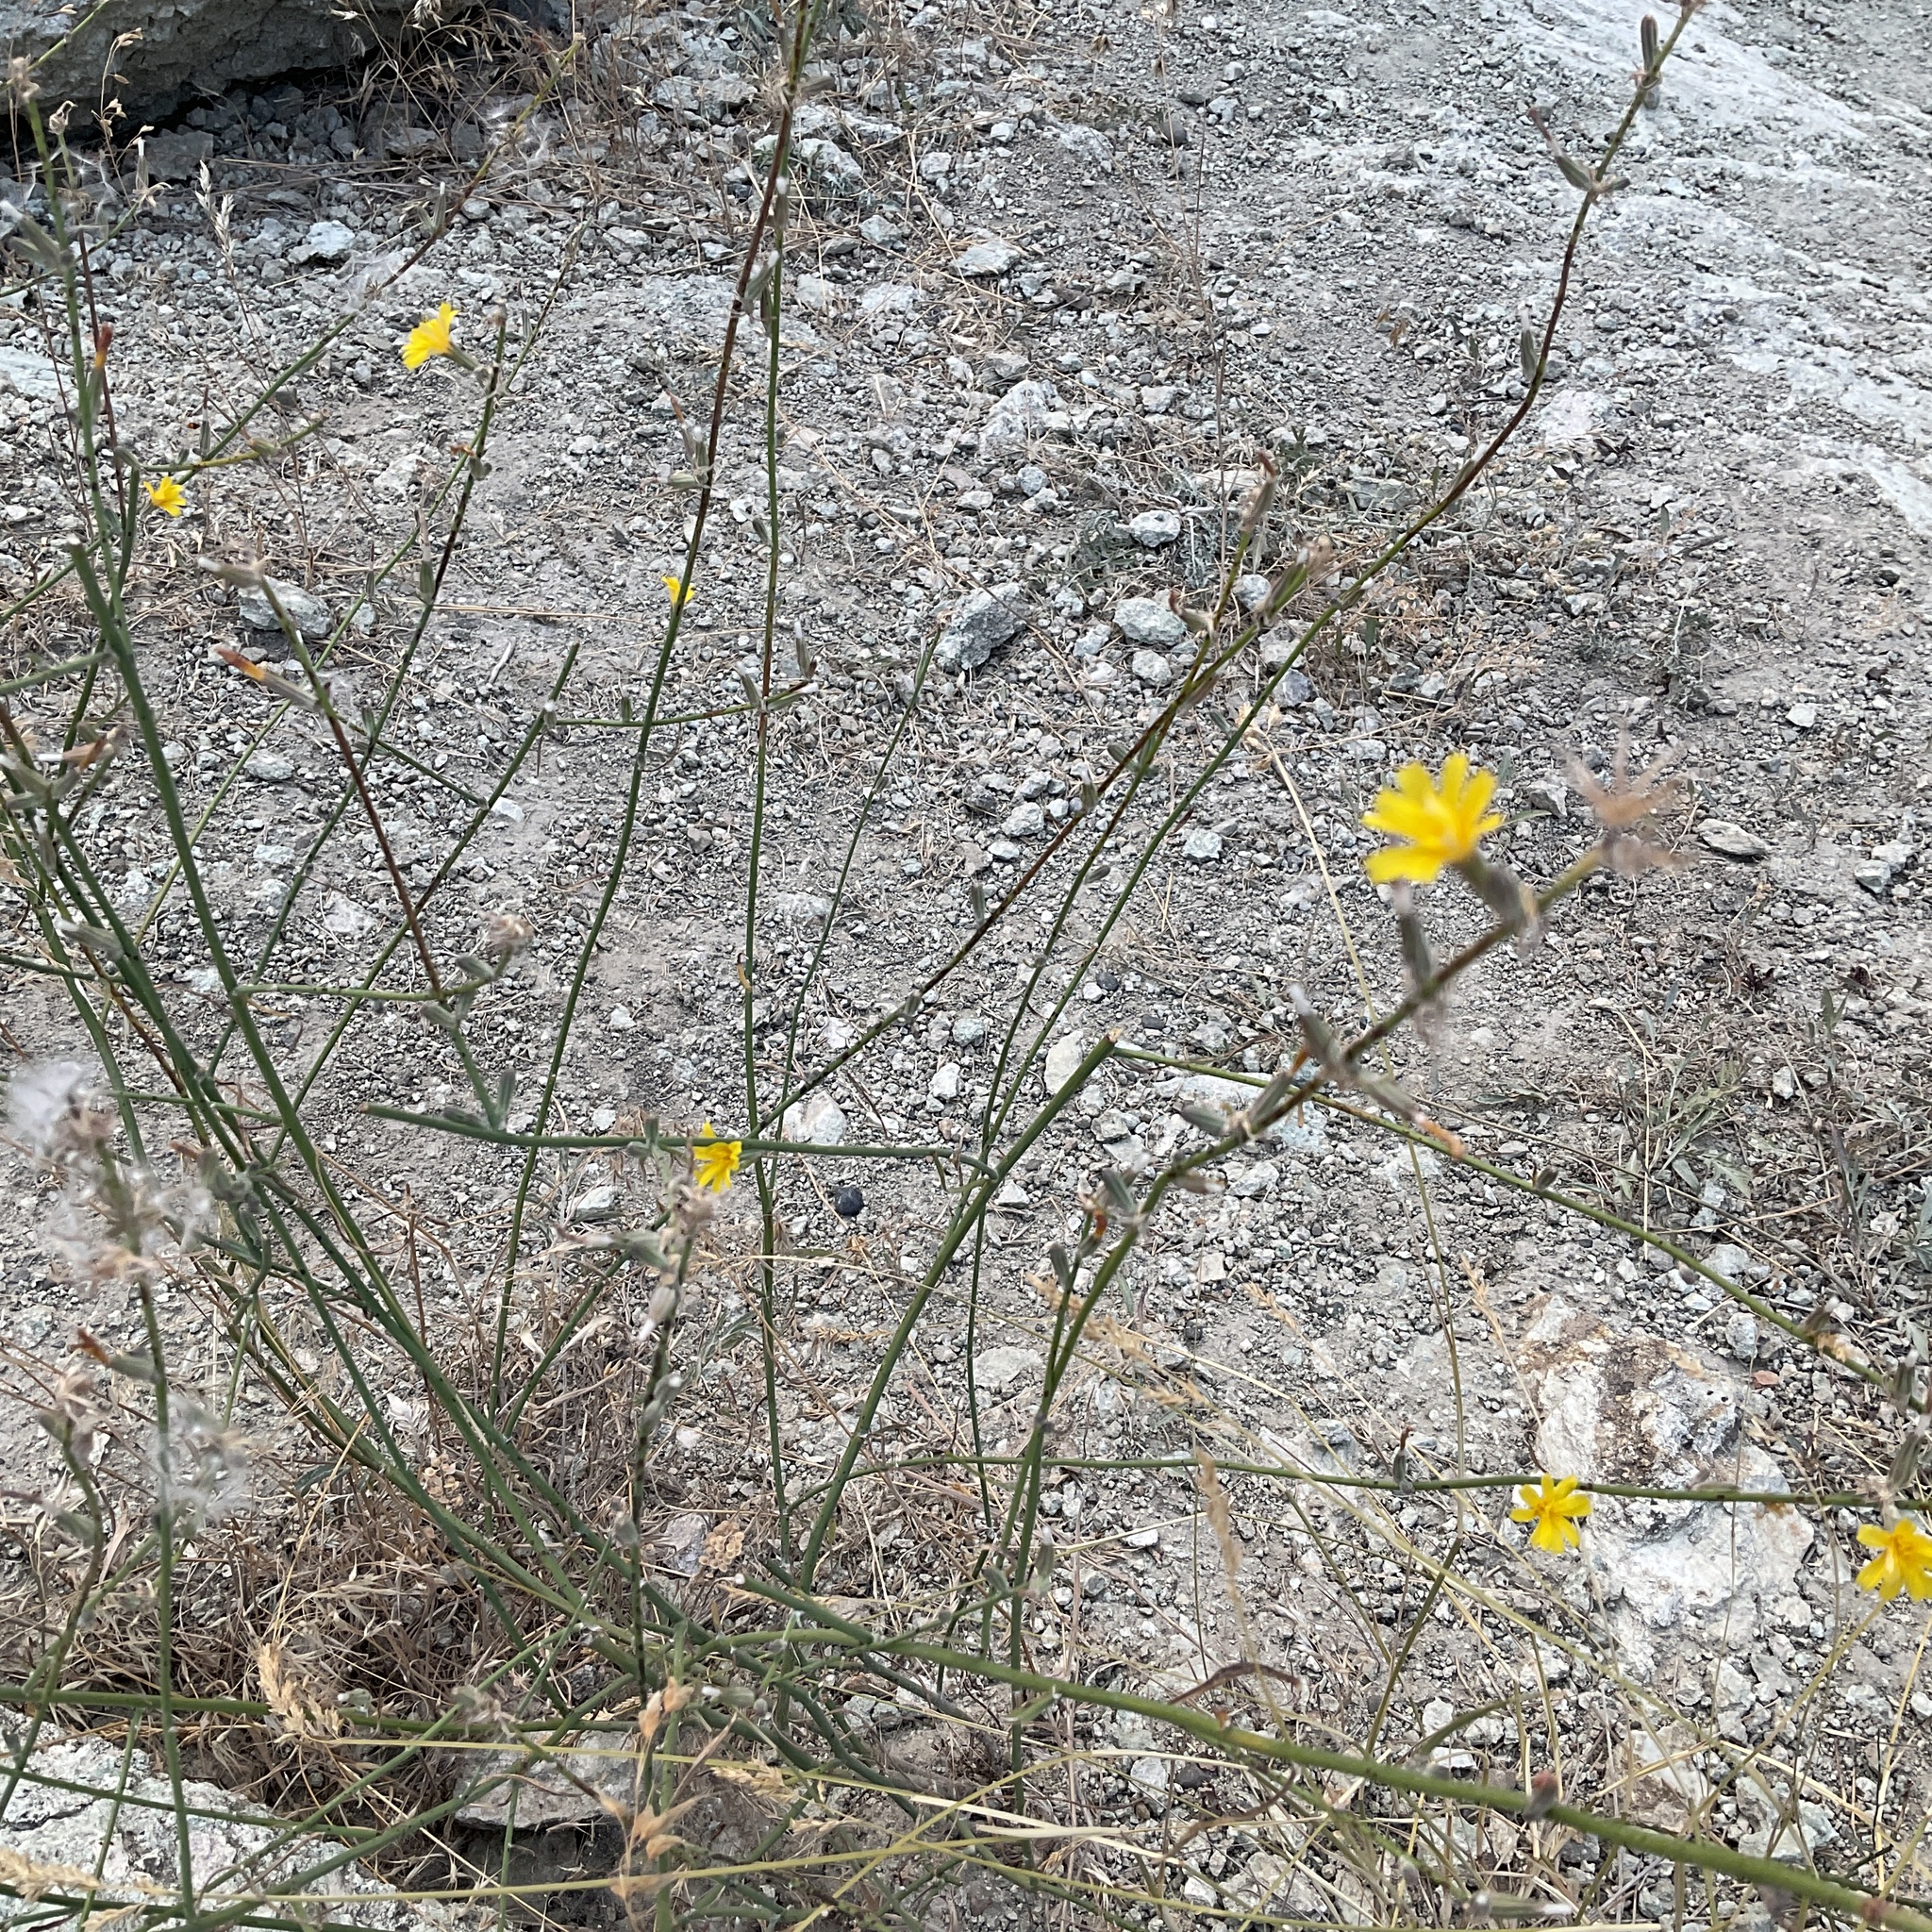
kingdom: Plantae
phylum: Tracheophyta
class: Magnoliopsida
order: Asterales
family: Asteraceae
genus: Chondrilla
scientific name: Chondrilla juncea
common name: Skeleton weed
